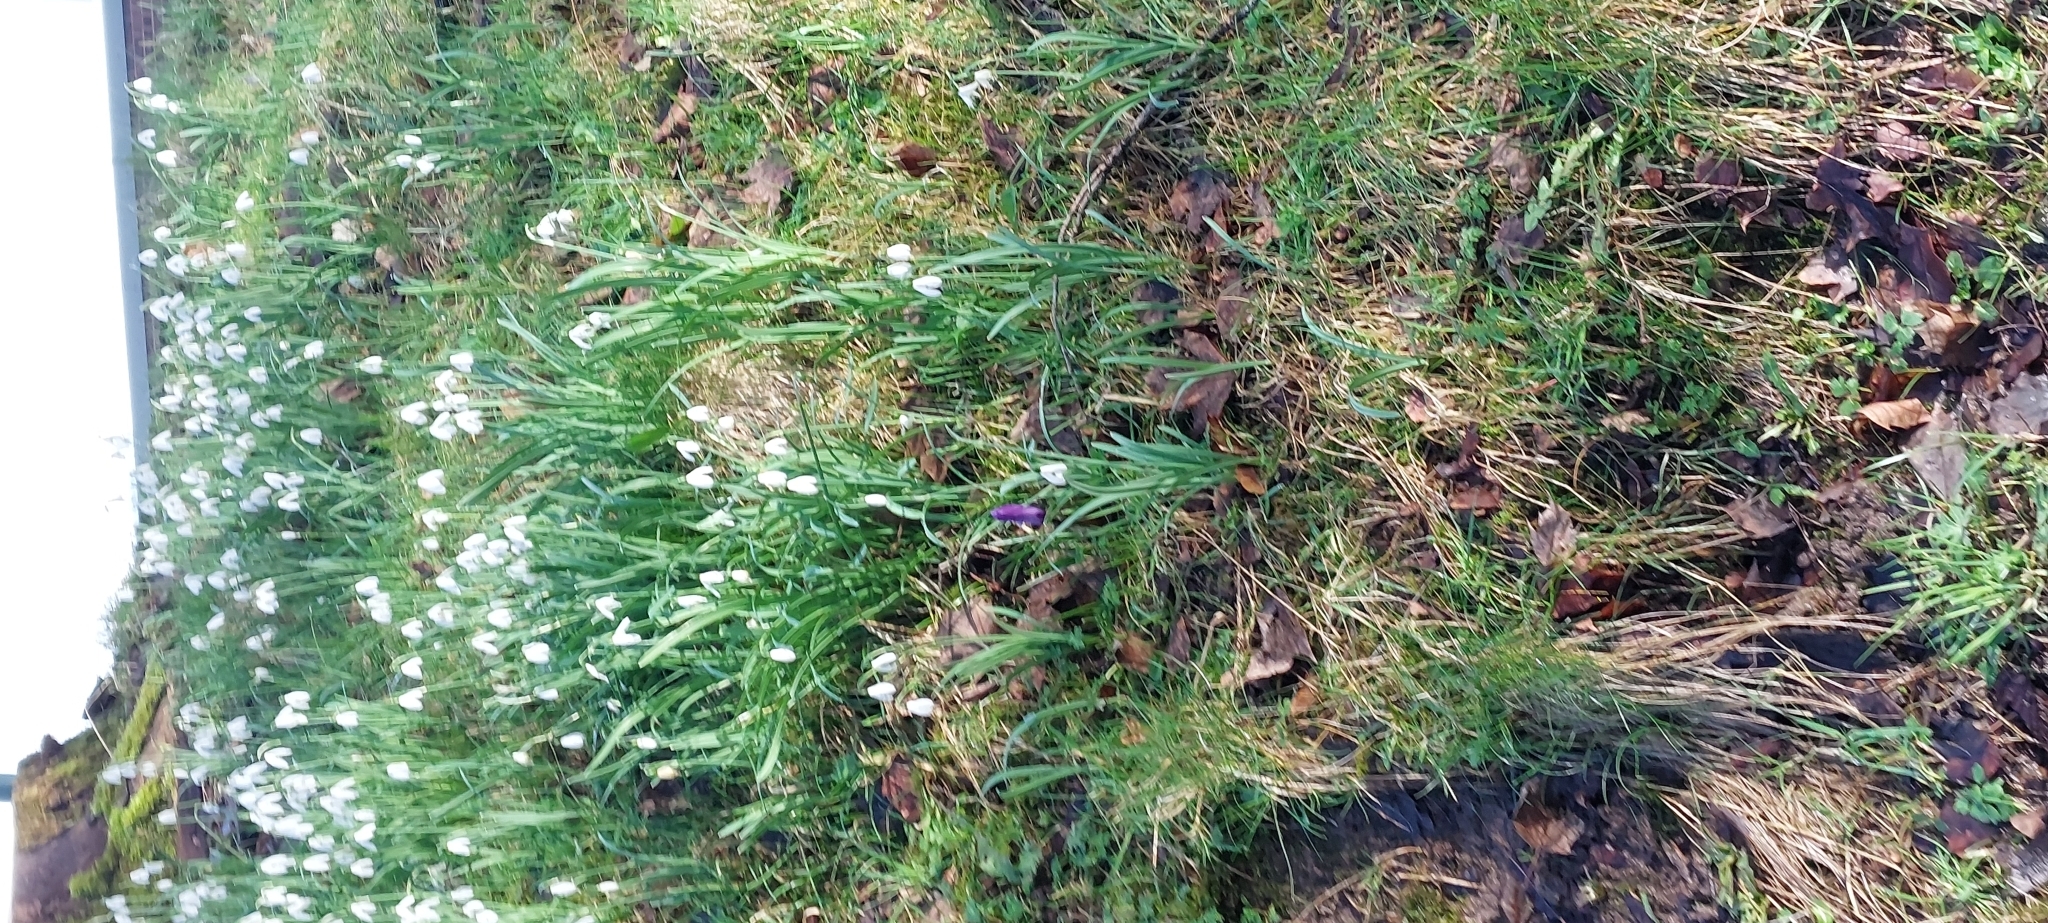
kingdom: Plantae
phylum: Tracheophyta
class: Liliopsida
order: Asparagales
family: Amaryllidaceae
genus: Galanthus
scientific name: Galanthus nivalis
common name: Snowdrop
